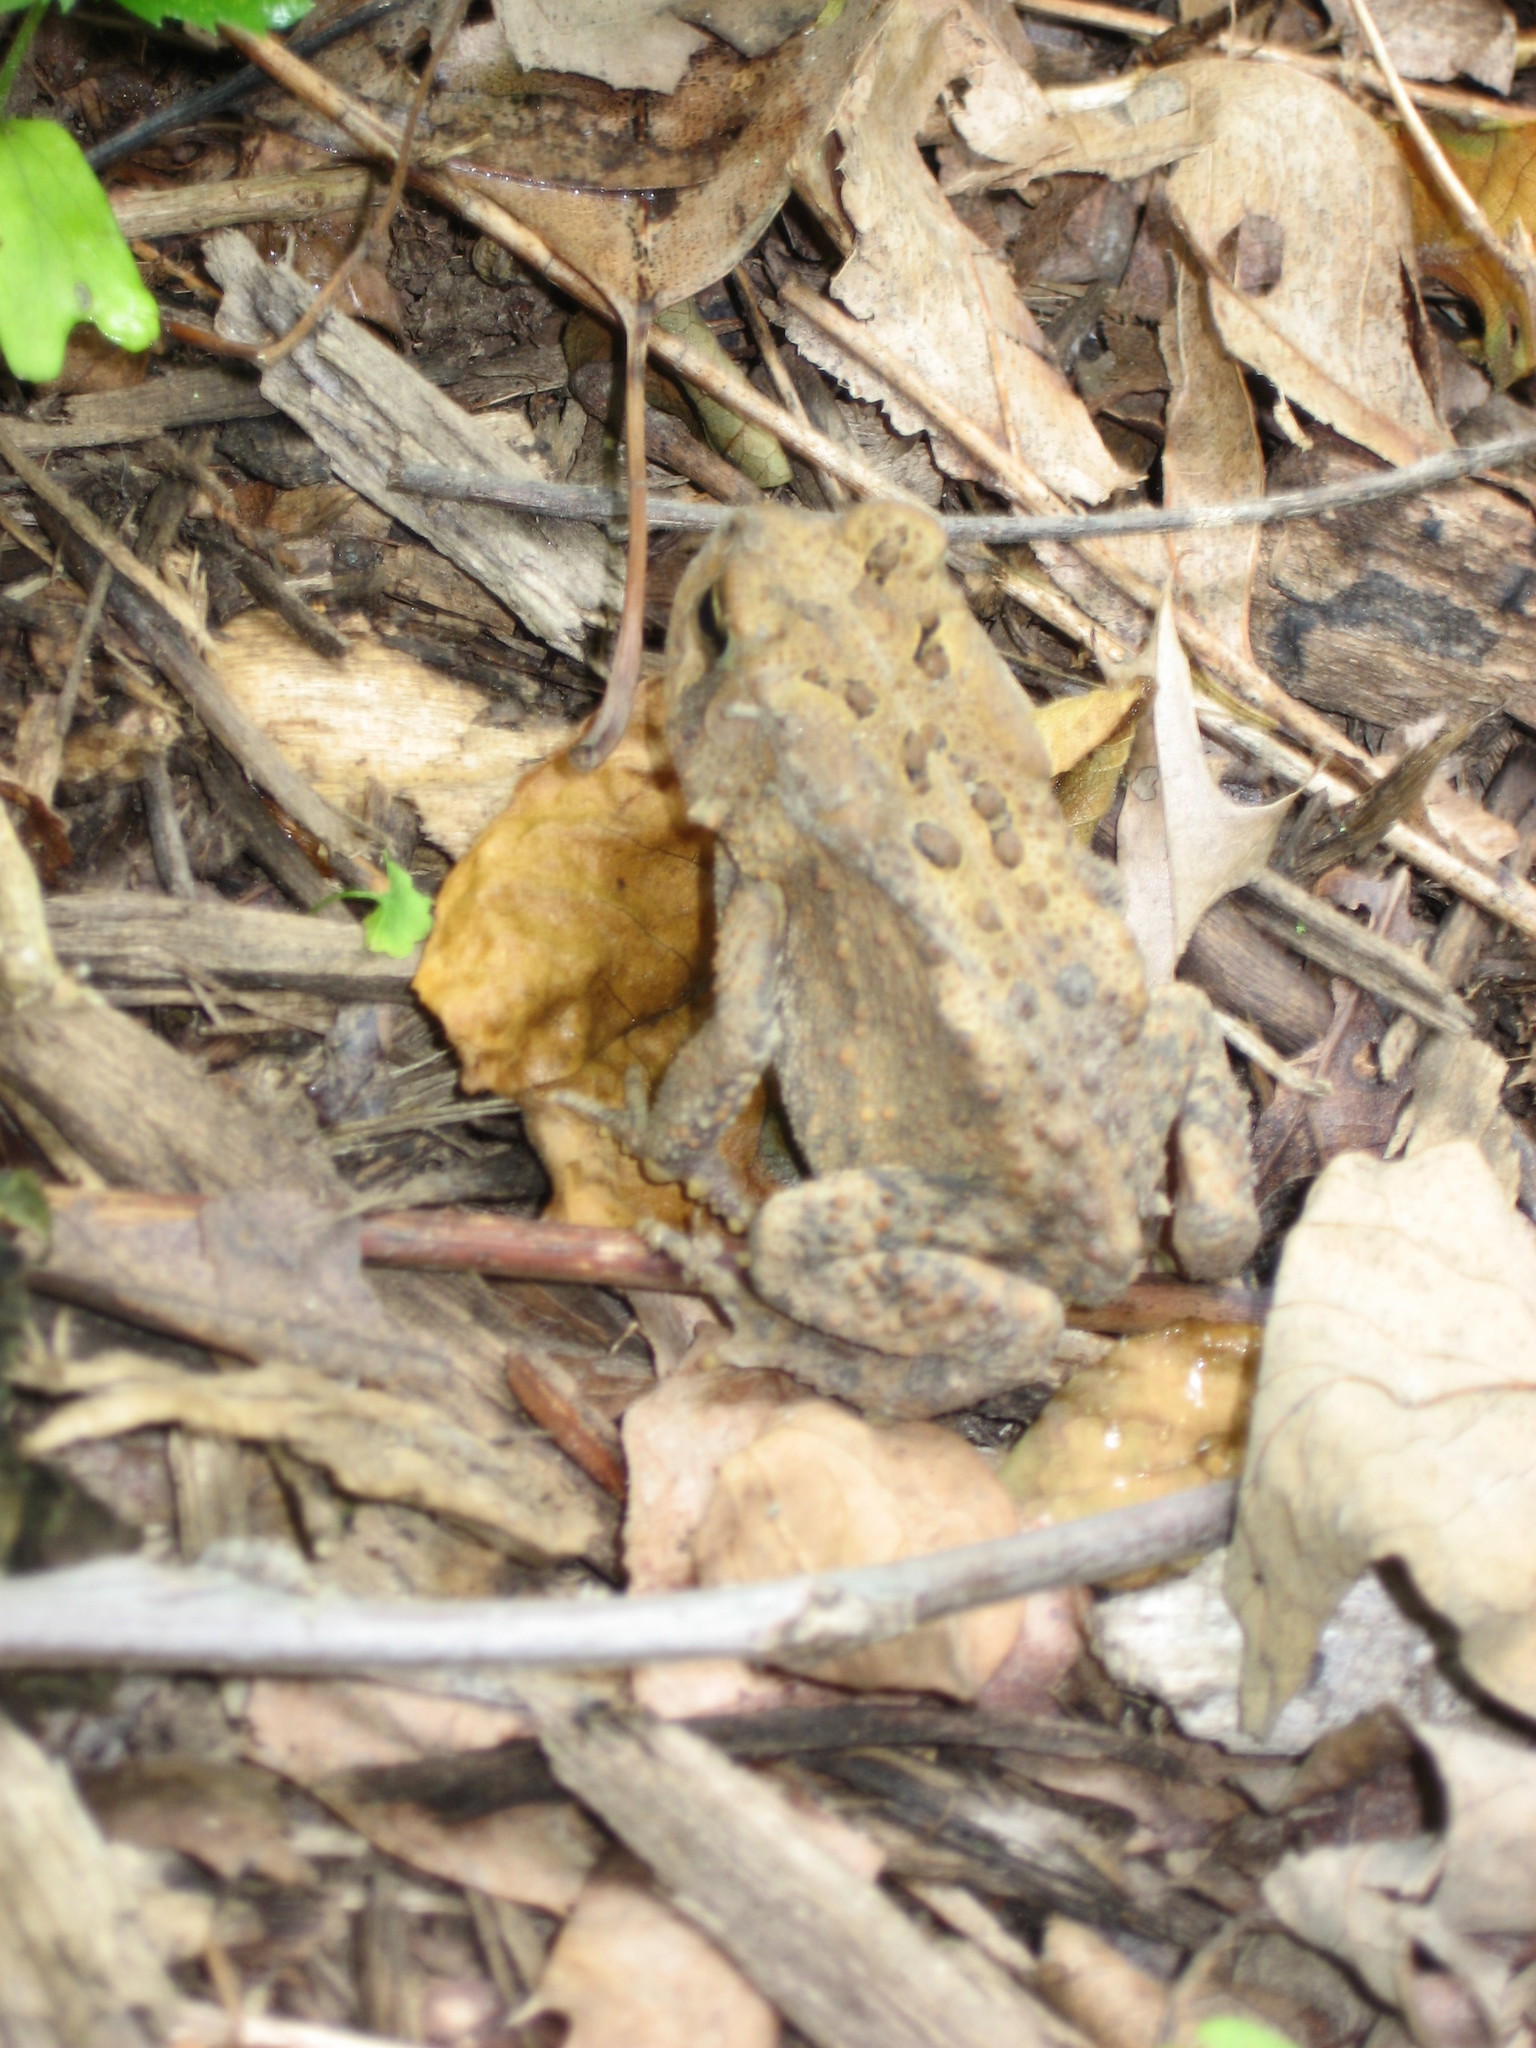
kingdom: Animalia
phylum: Chordata
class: Amphibia
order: Anura
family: Bufonidae
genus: Anaxyrus
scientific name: Anaxyrus americanus
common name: American toad
